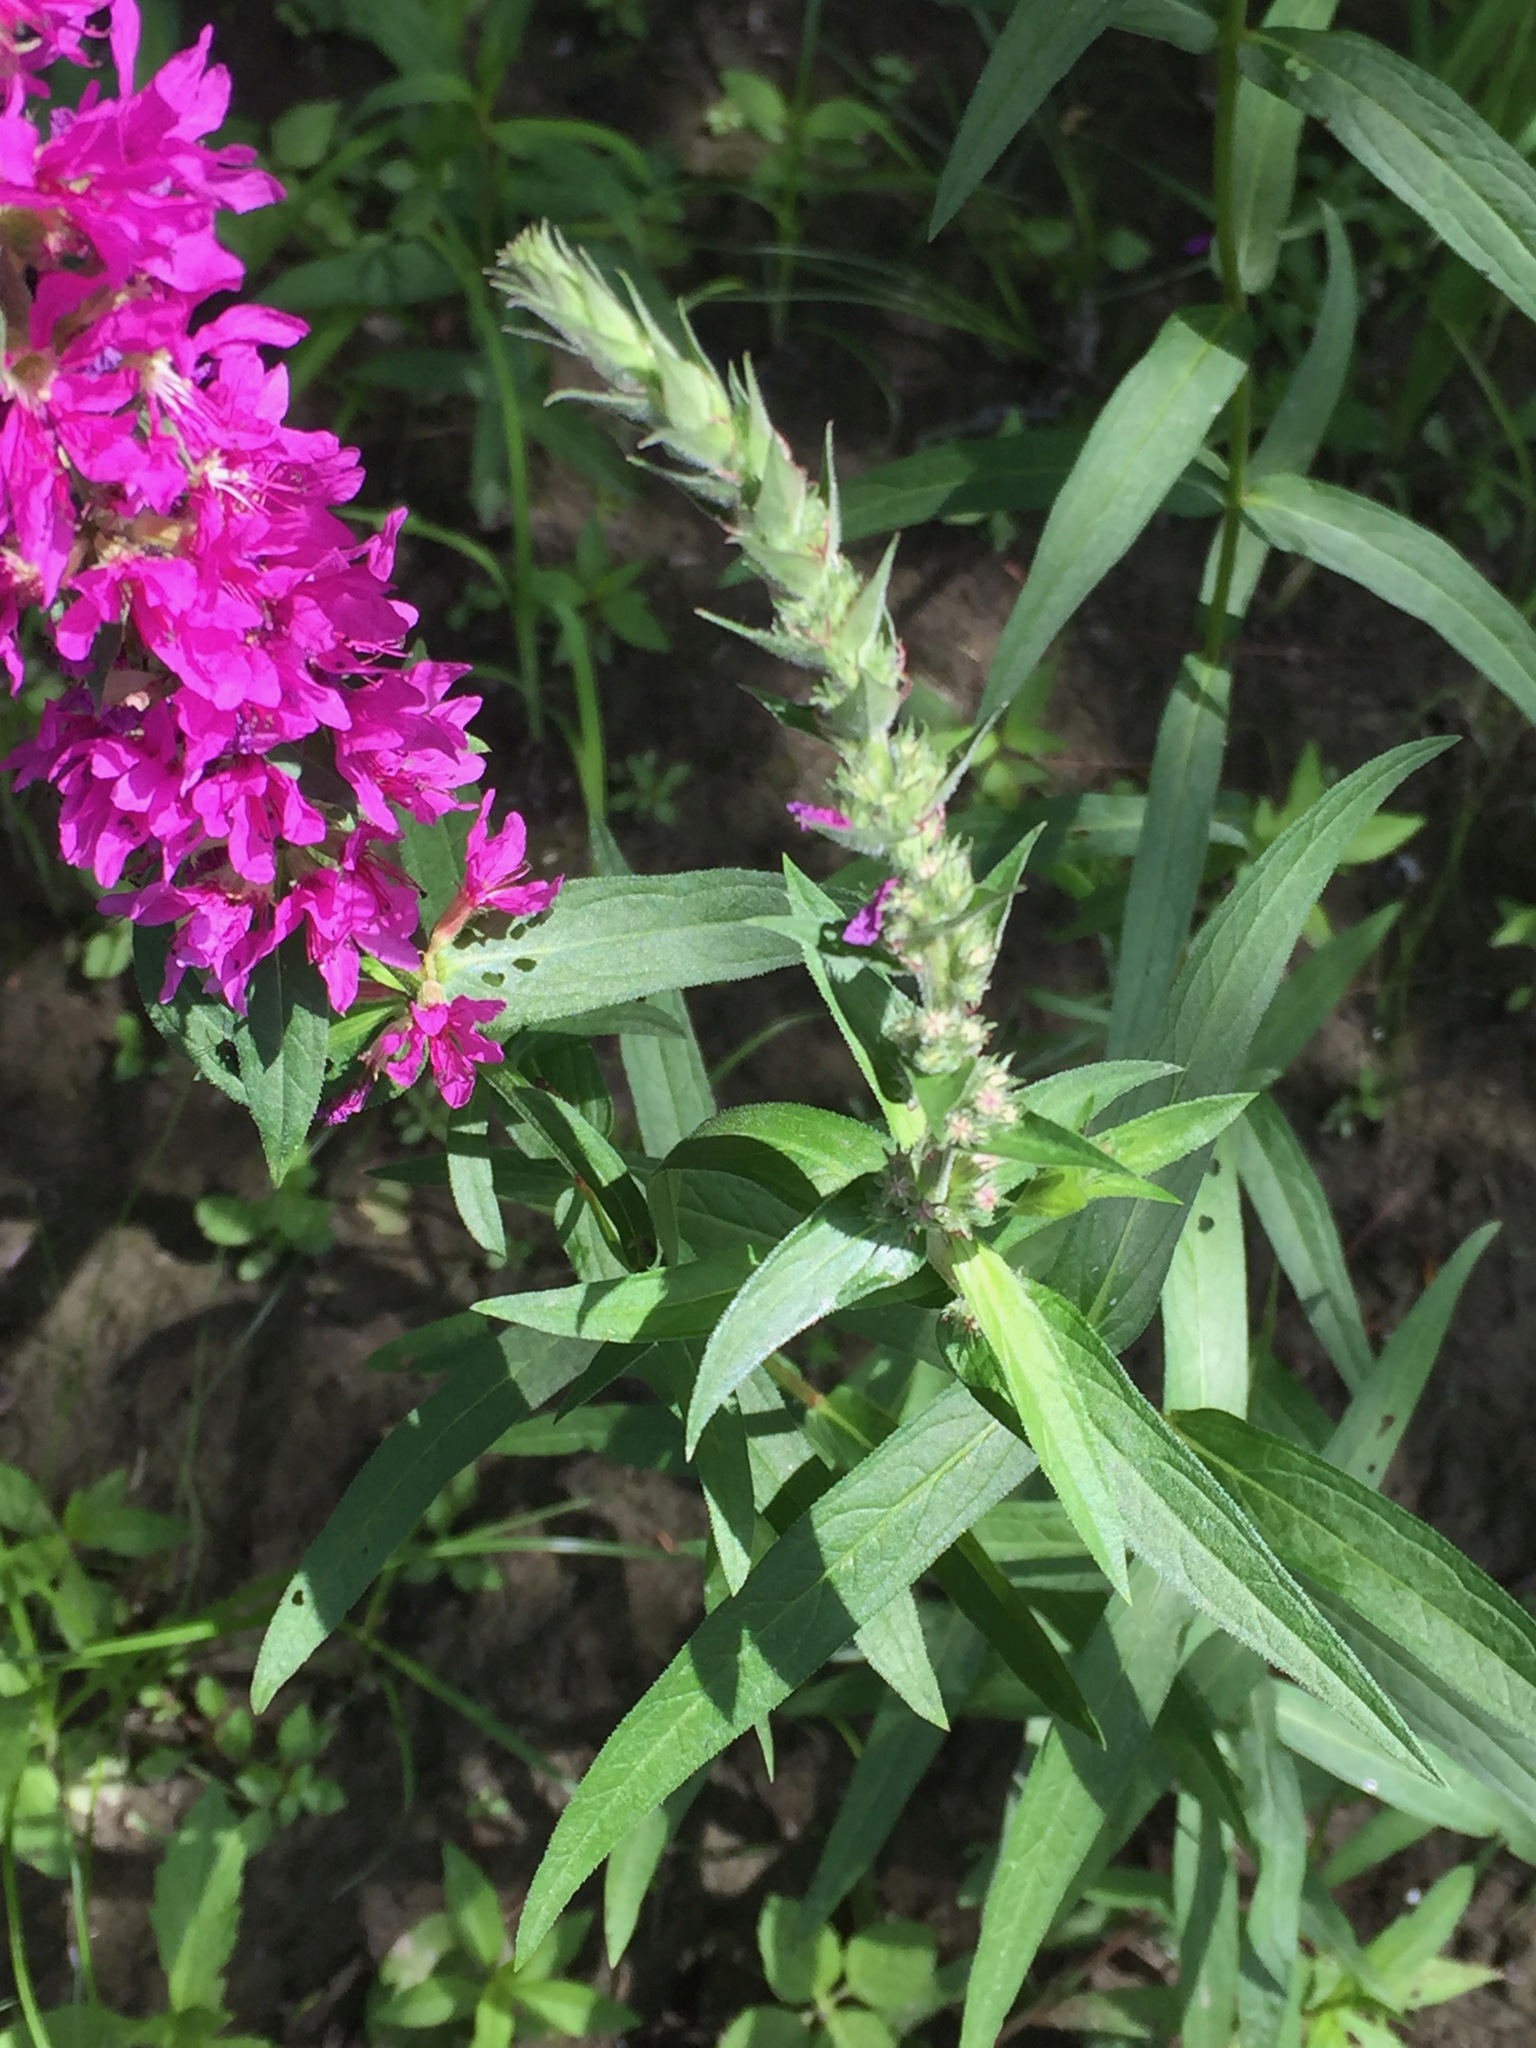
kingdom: Plantae
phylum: Tracheophyta
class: Magnoliopsida
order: Myrtales
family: Lythraceae
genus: Lythrum
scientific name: Lythrum salicaria
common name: Purple loosestrife
